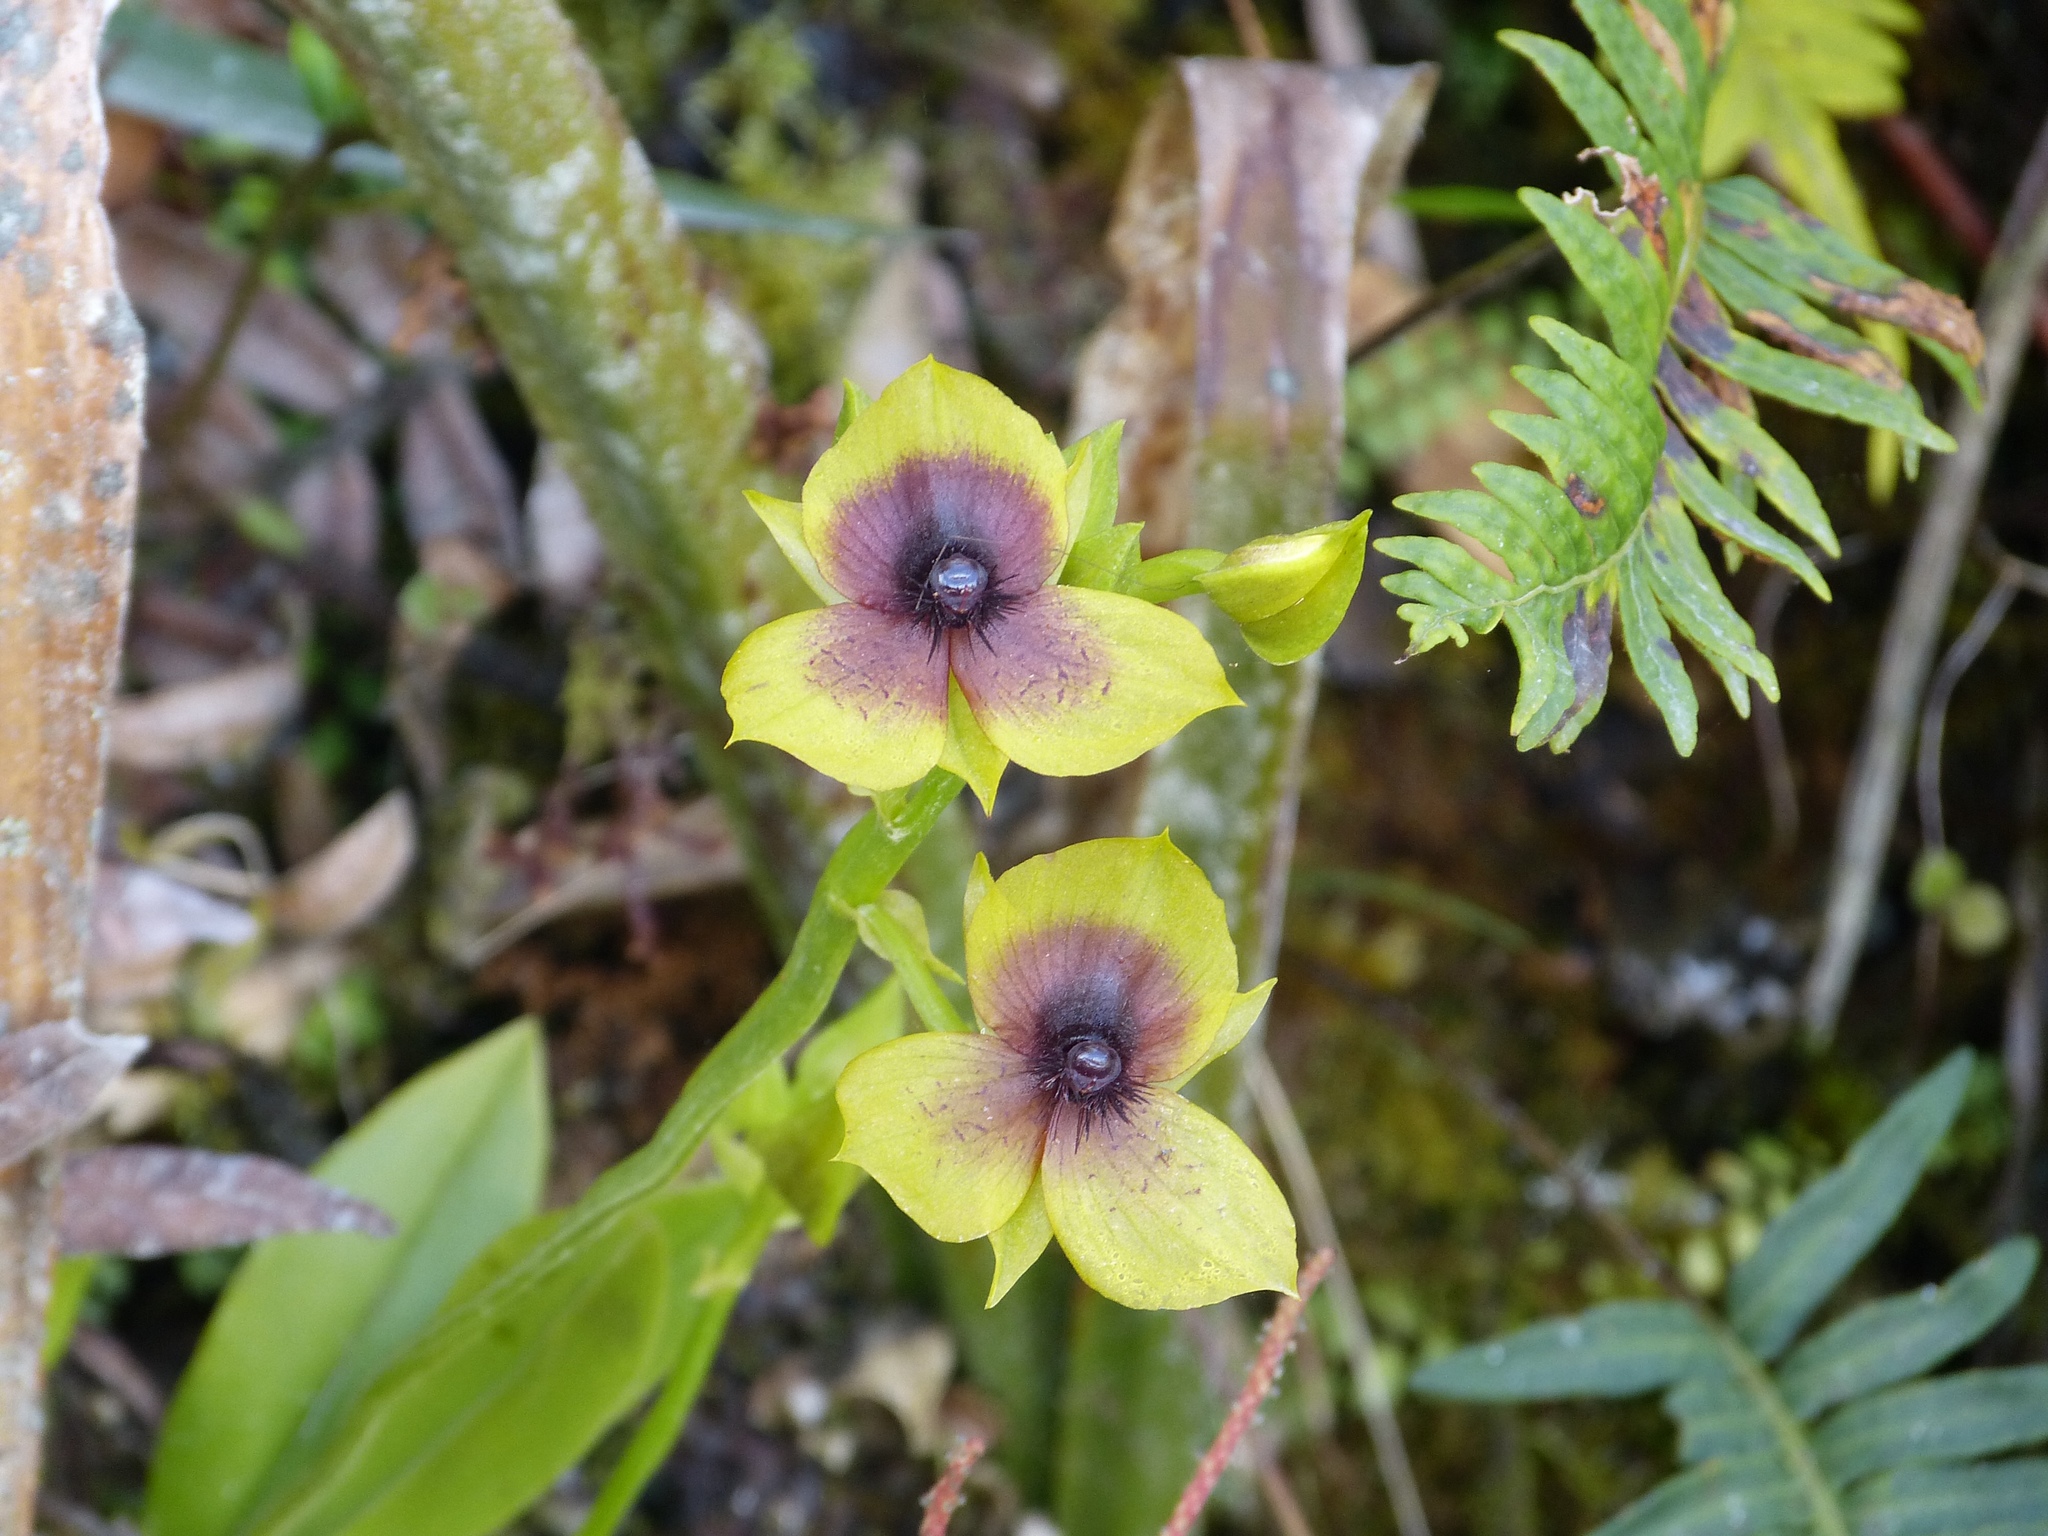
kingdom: Plantae
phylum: Tracheophyta
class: Liliopsida
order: Asparagales
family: Orchidaceae
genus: Telipogon
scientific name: Telipogon berthae
